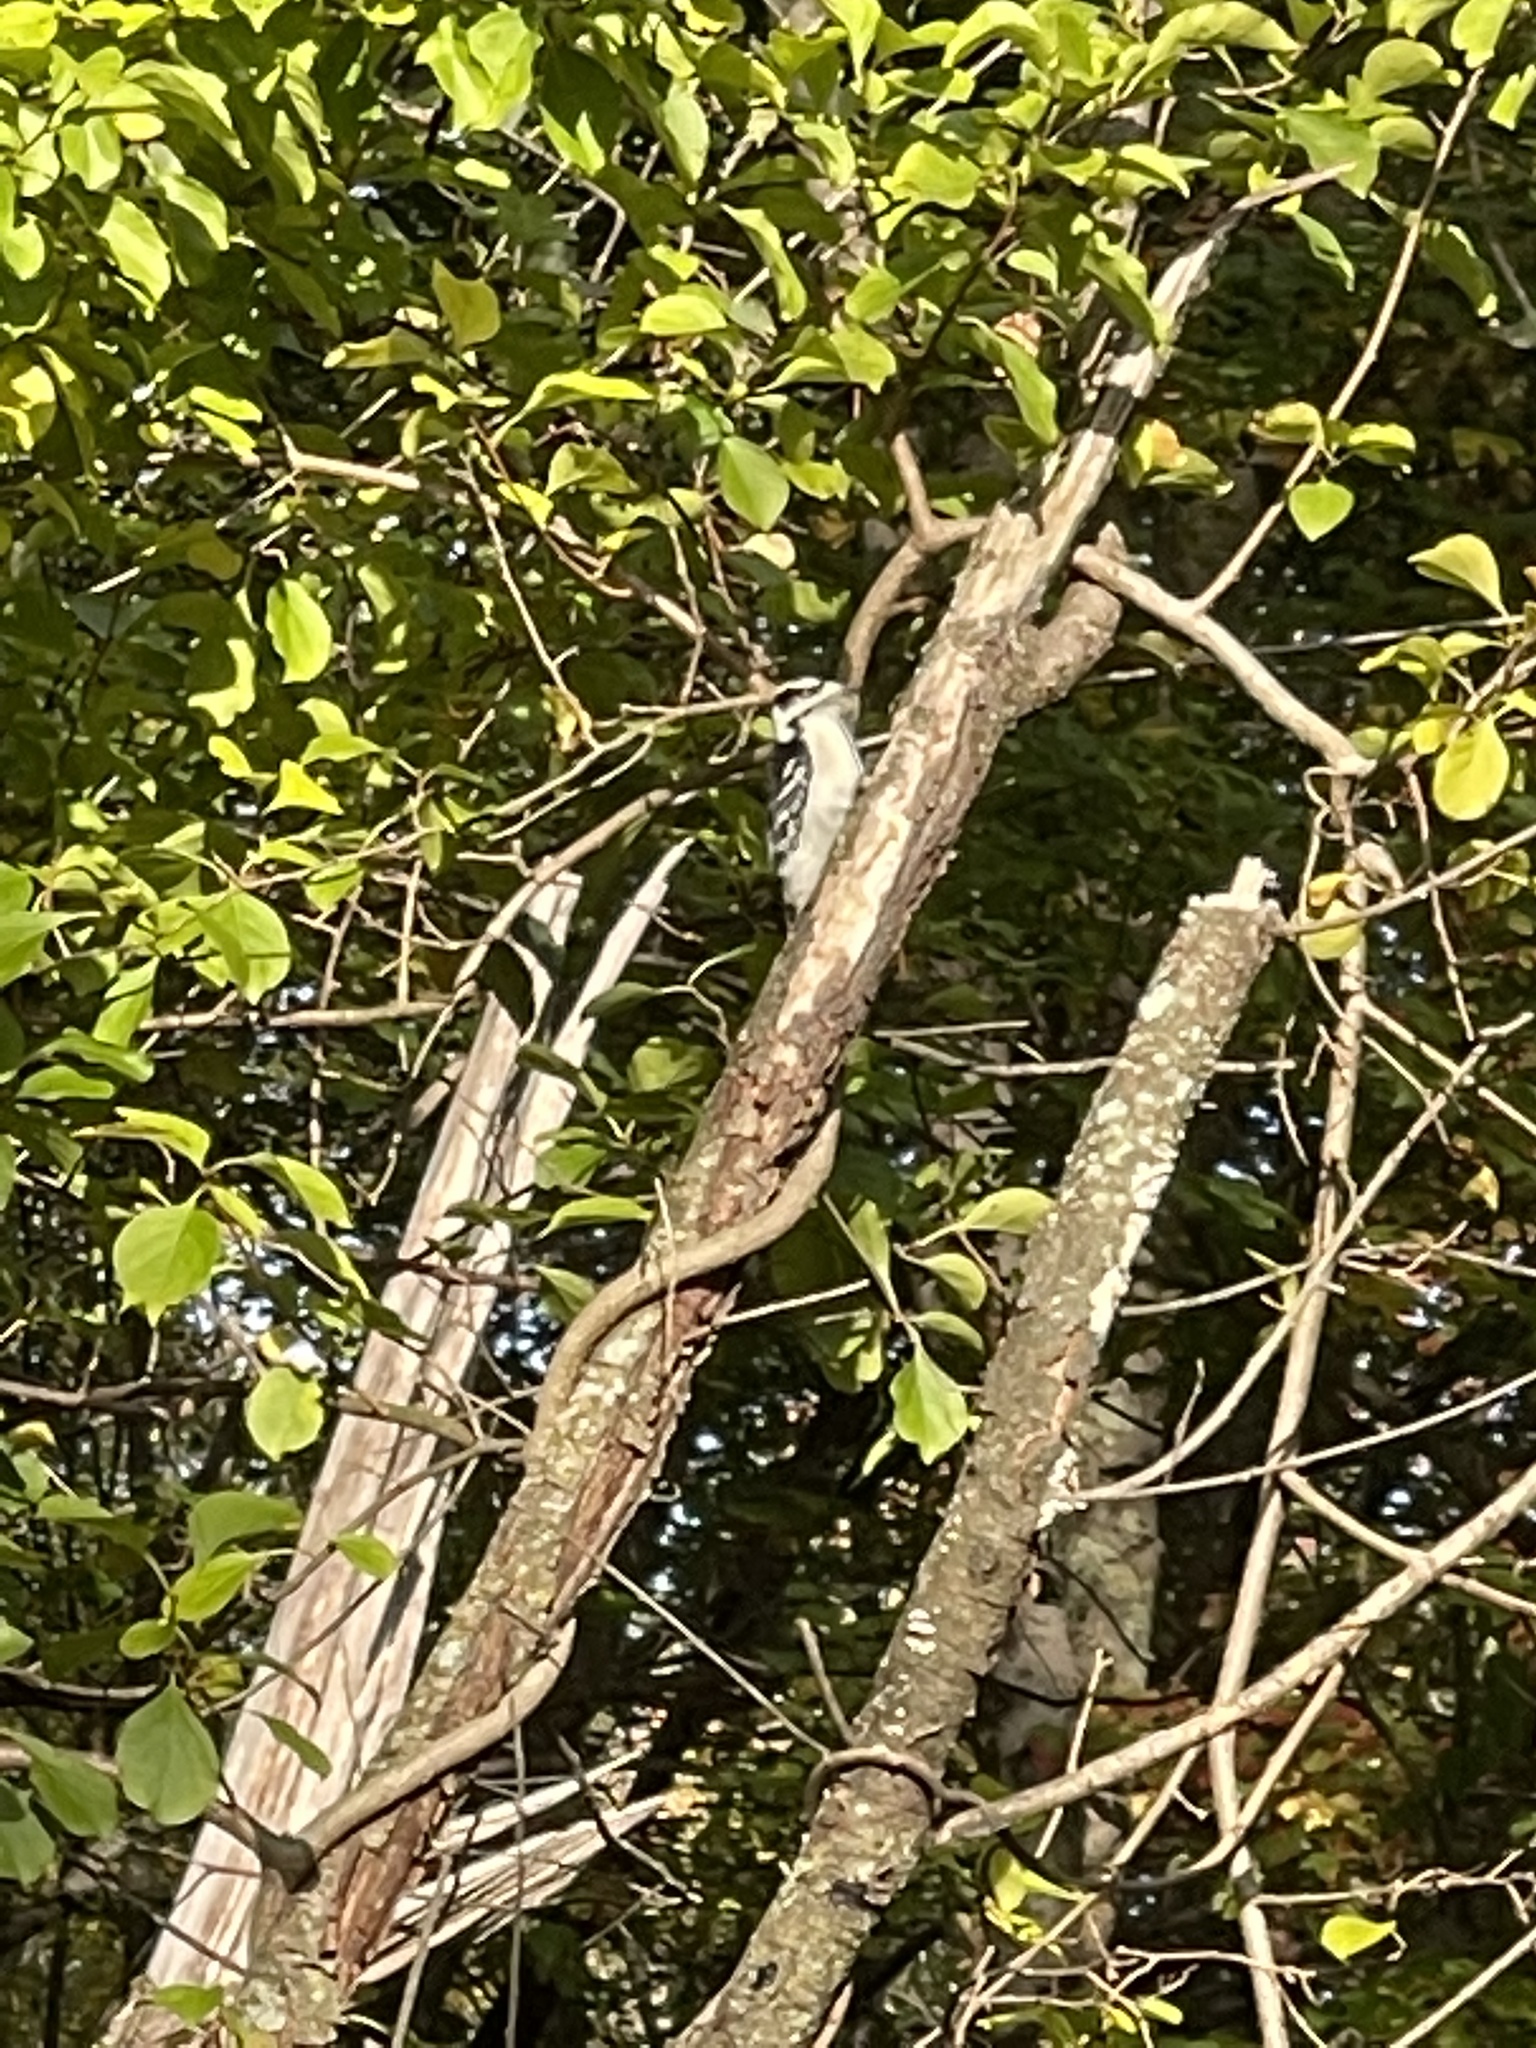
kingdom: Animalia
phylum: Chordata
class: Aves
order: Piciformes
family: Picidae
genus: Dryobates
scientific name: Dryobates pubescens
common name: Downy woodpecker
